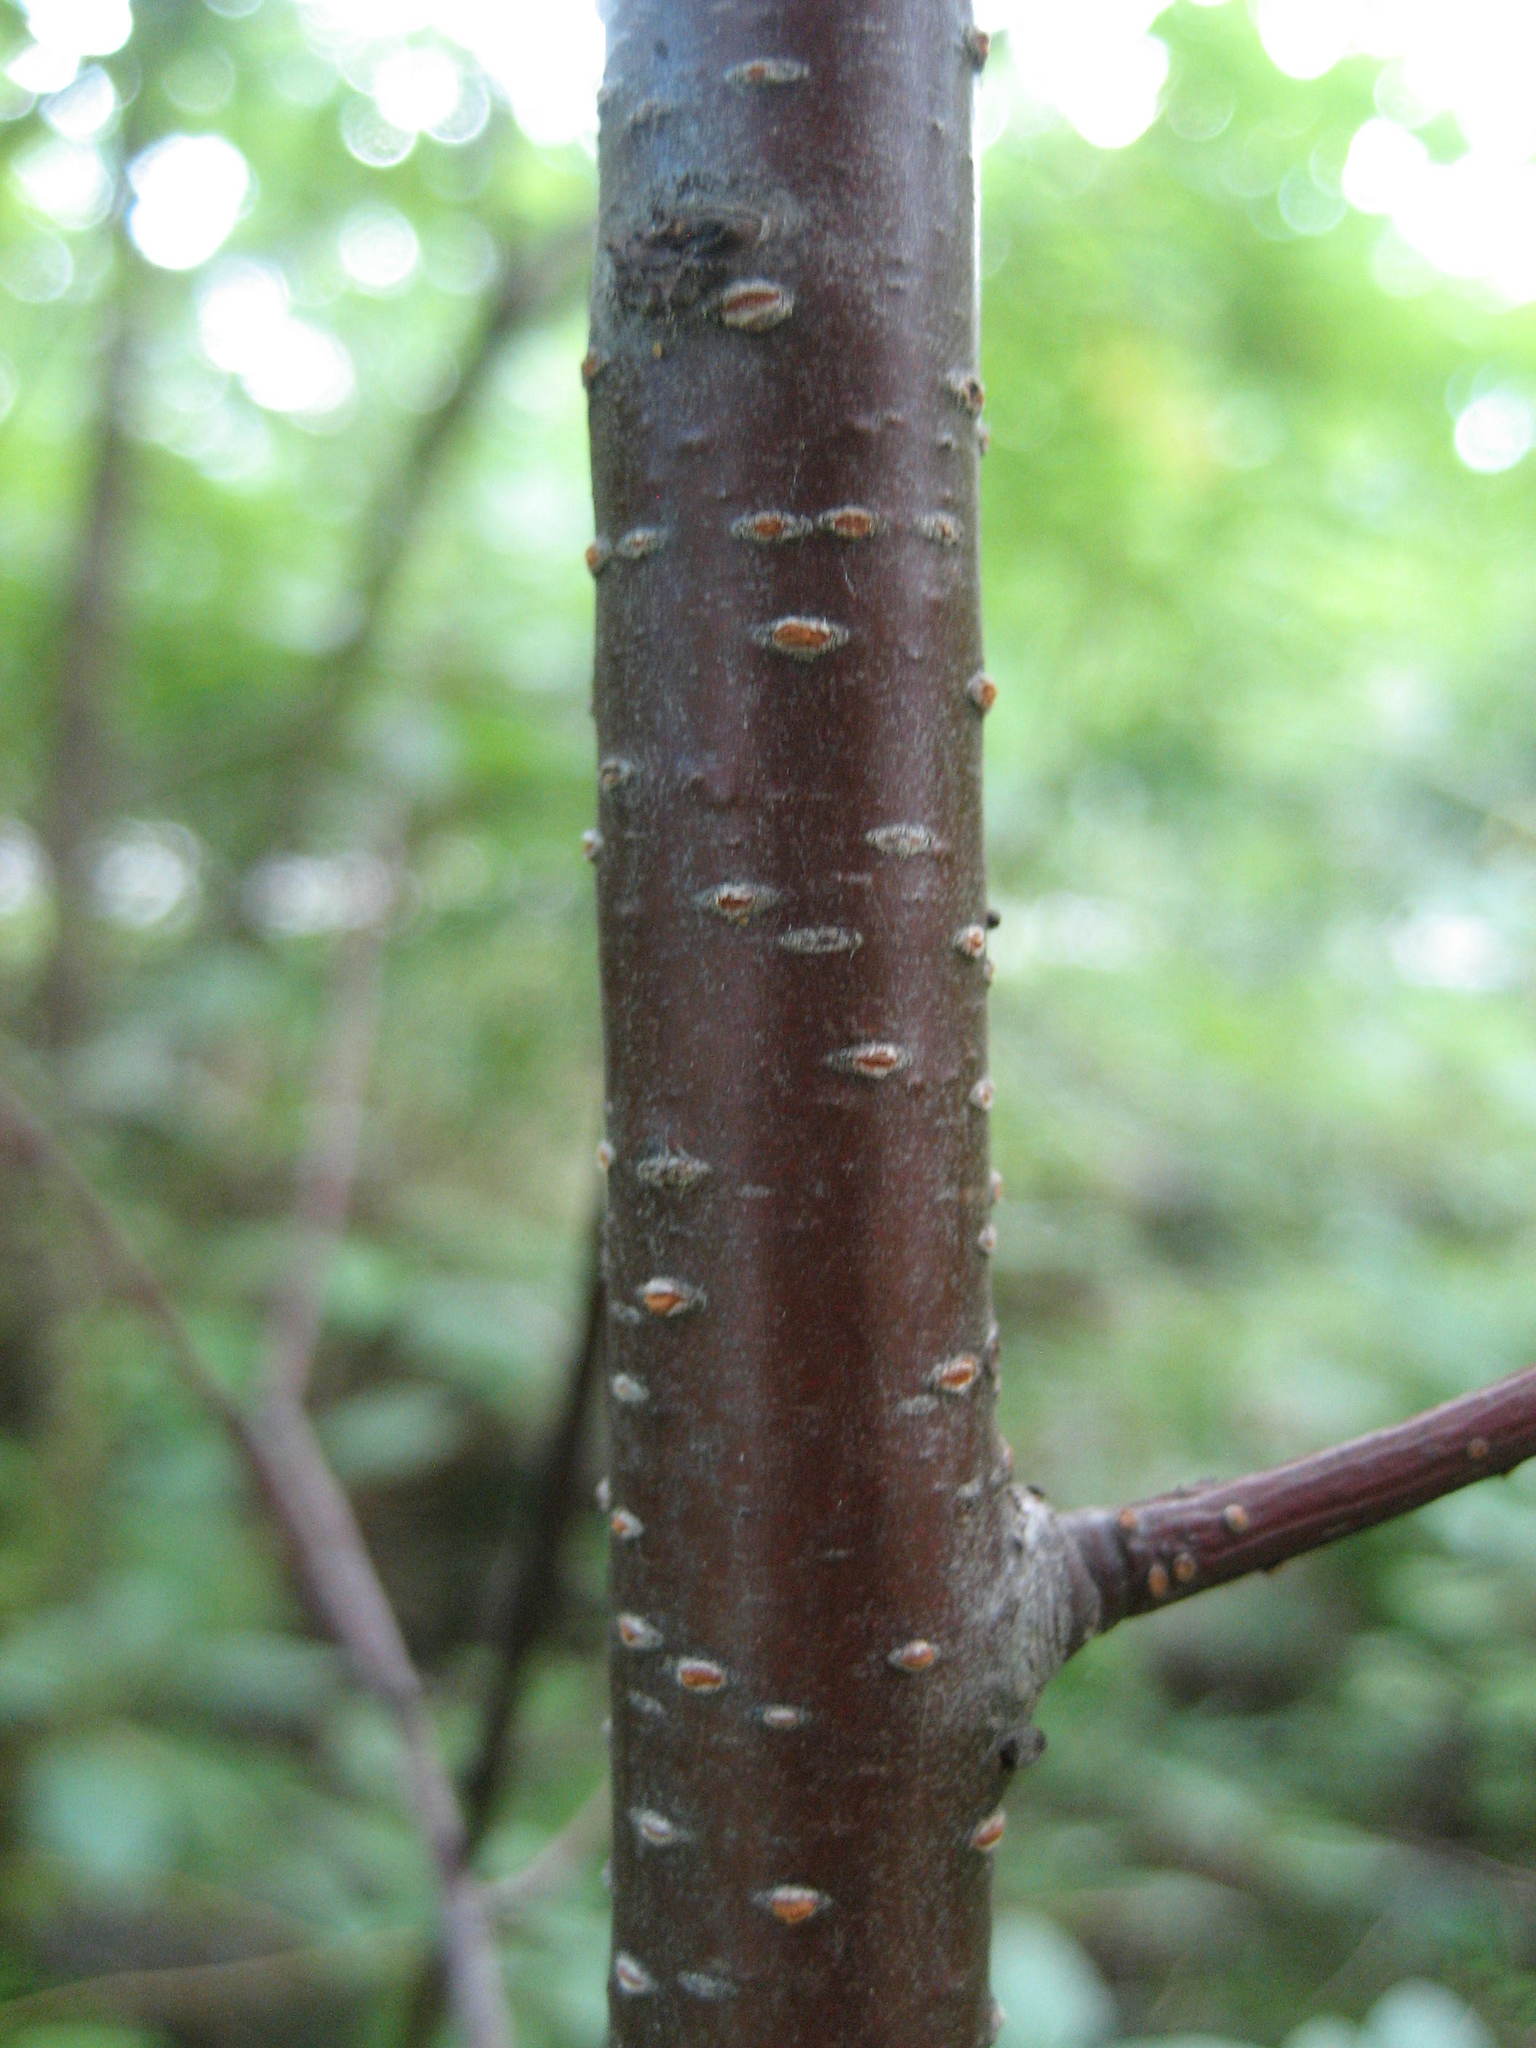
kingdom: Plantae
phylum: Tracheophyta
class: Magnoliopsida
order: Rosales
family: Rosaceae
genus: Prunus
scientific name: Prunus pensylvanica
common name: Pin cherry
